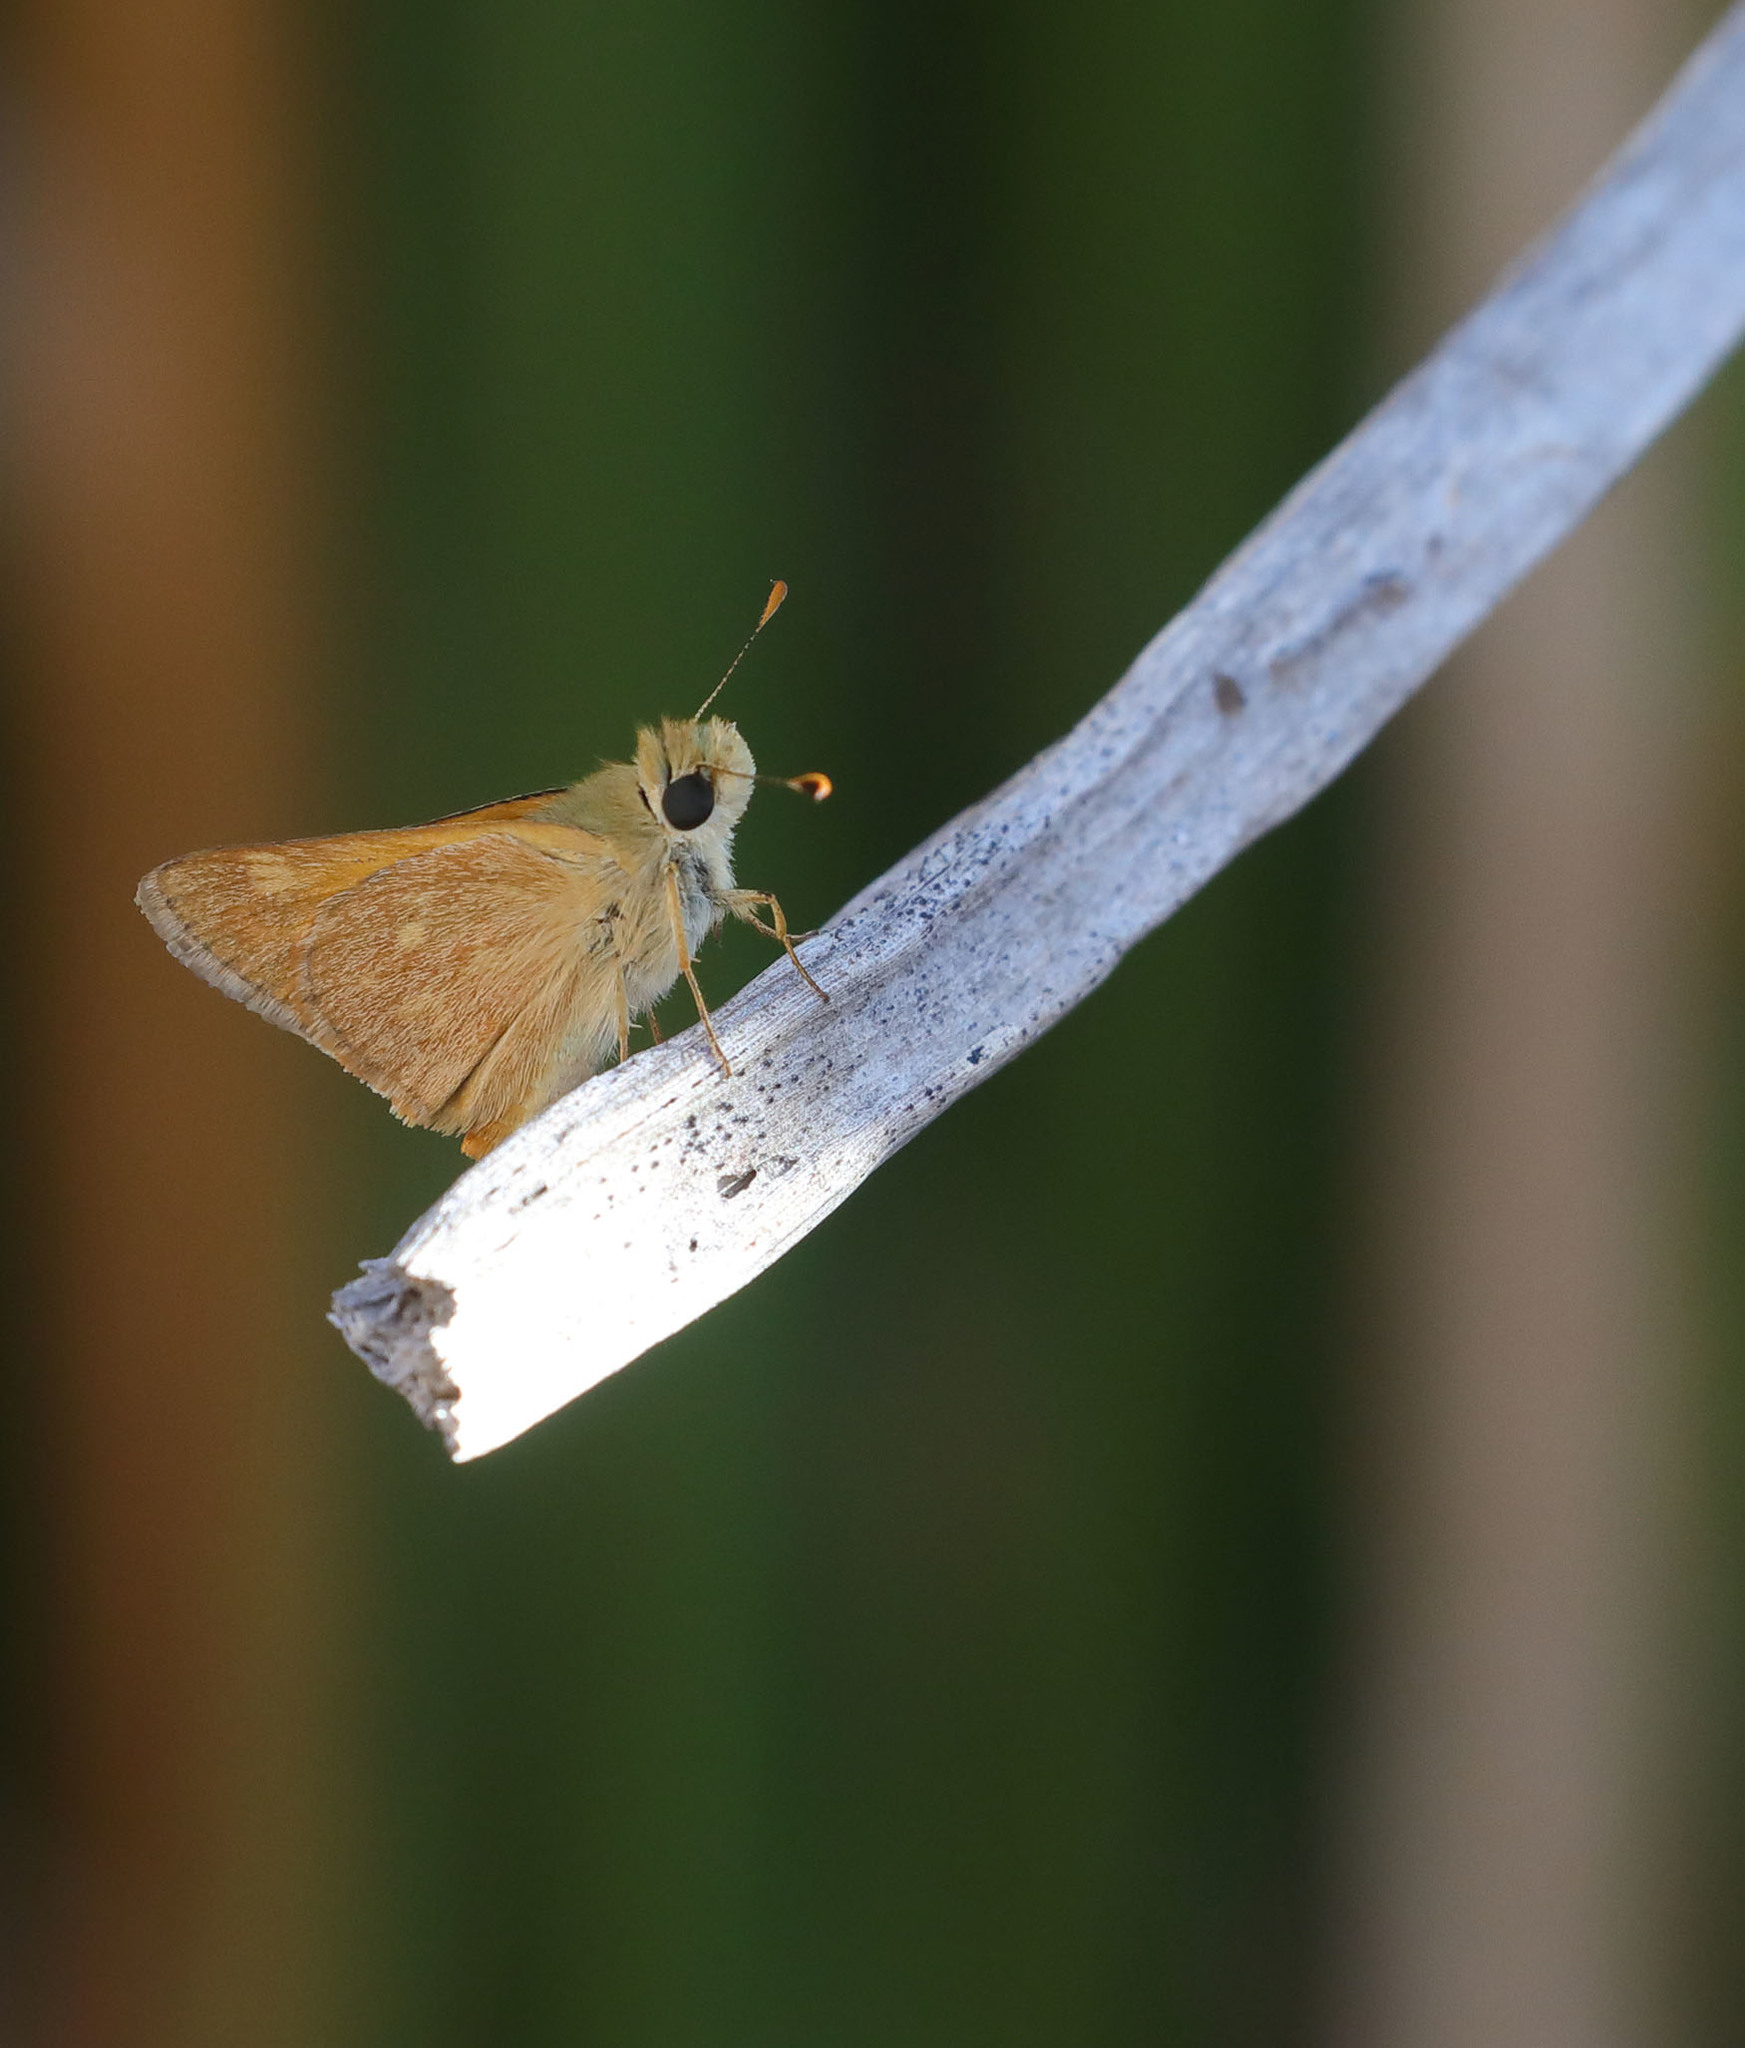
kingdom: Animalia
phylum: Arthropoda
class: Insecta
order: Lepidoptera
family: Hesperiidae
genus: Ochlodes
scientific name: Ochlodes sylvanoides
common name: Woodland skipper
